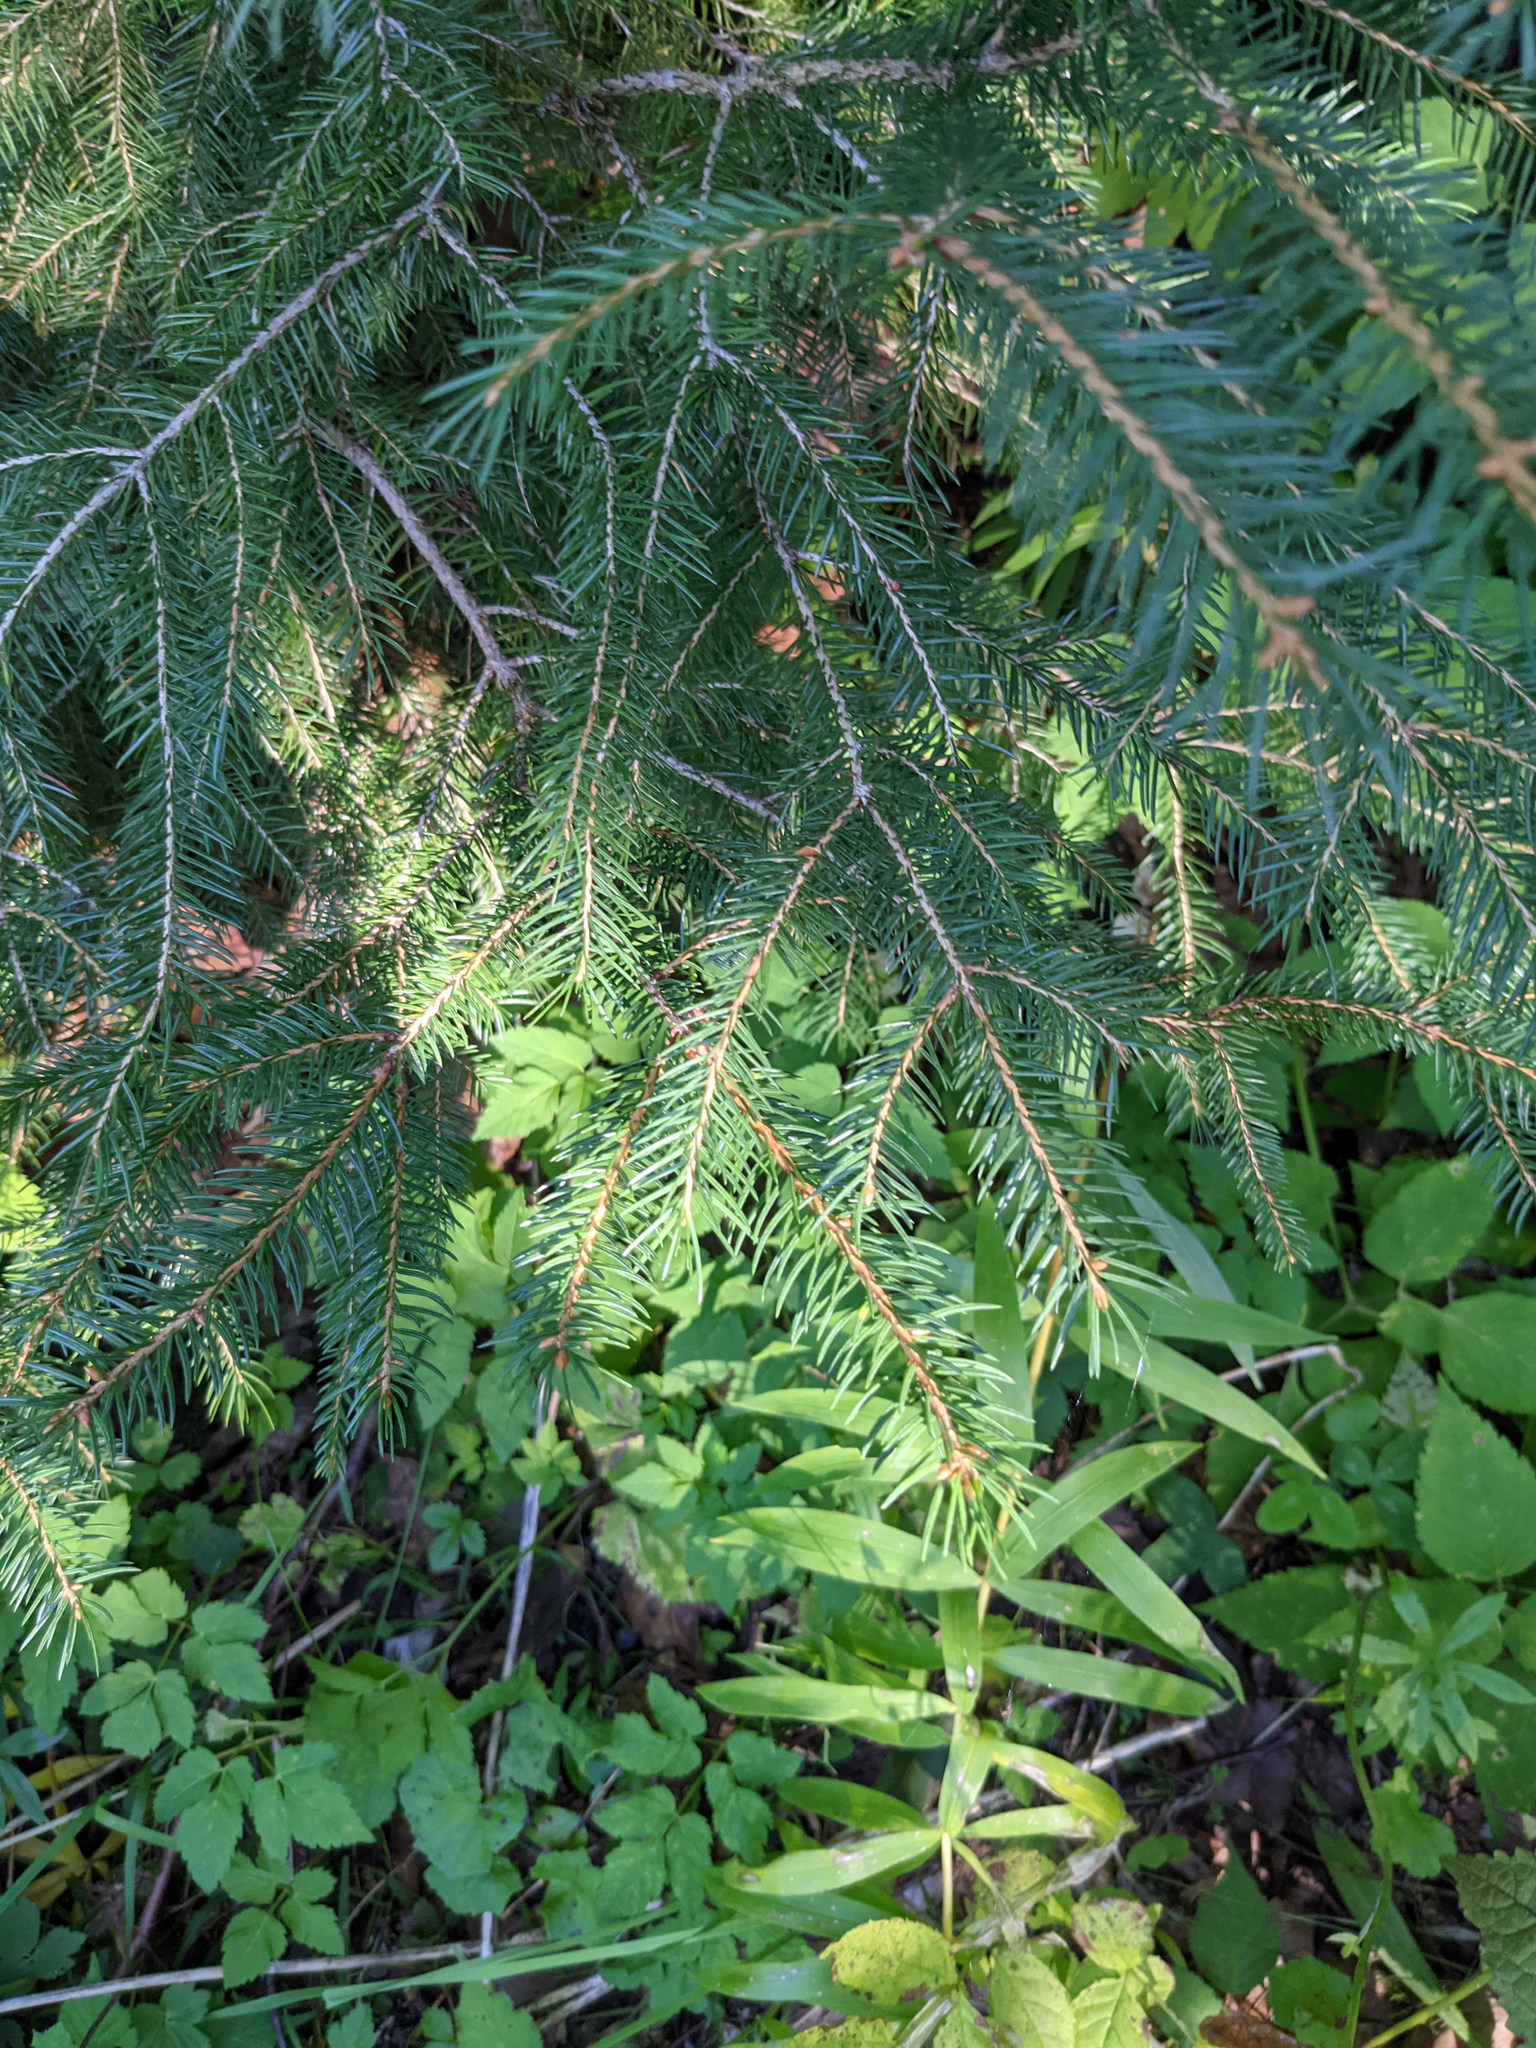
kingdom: Plantae
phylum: Tracheophyta
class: Pinopsida
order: Pinales
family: Pinaceae
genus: Picea
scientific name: Picea abies
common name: Norway spruce
